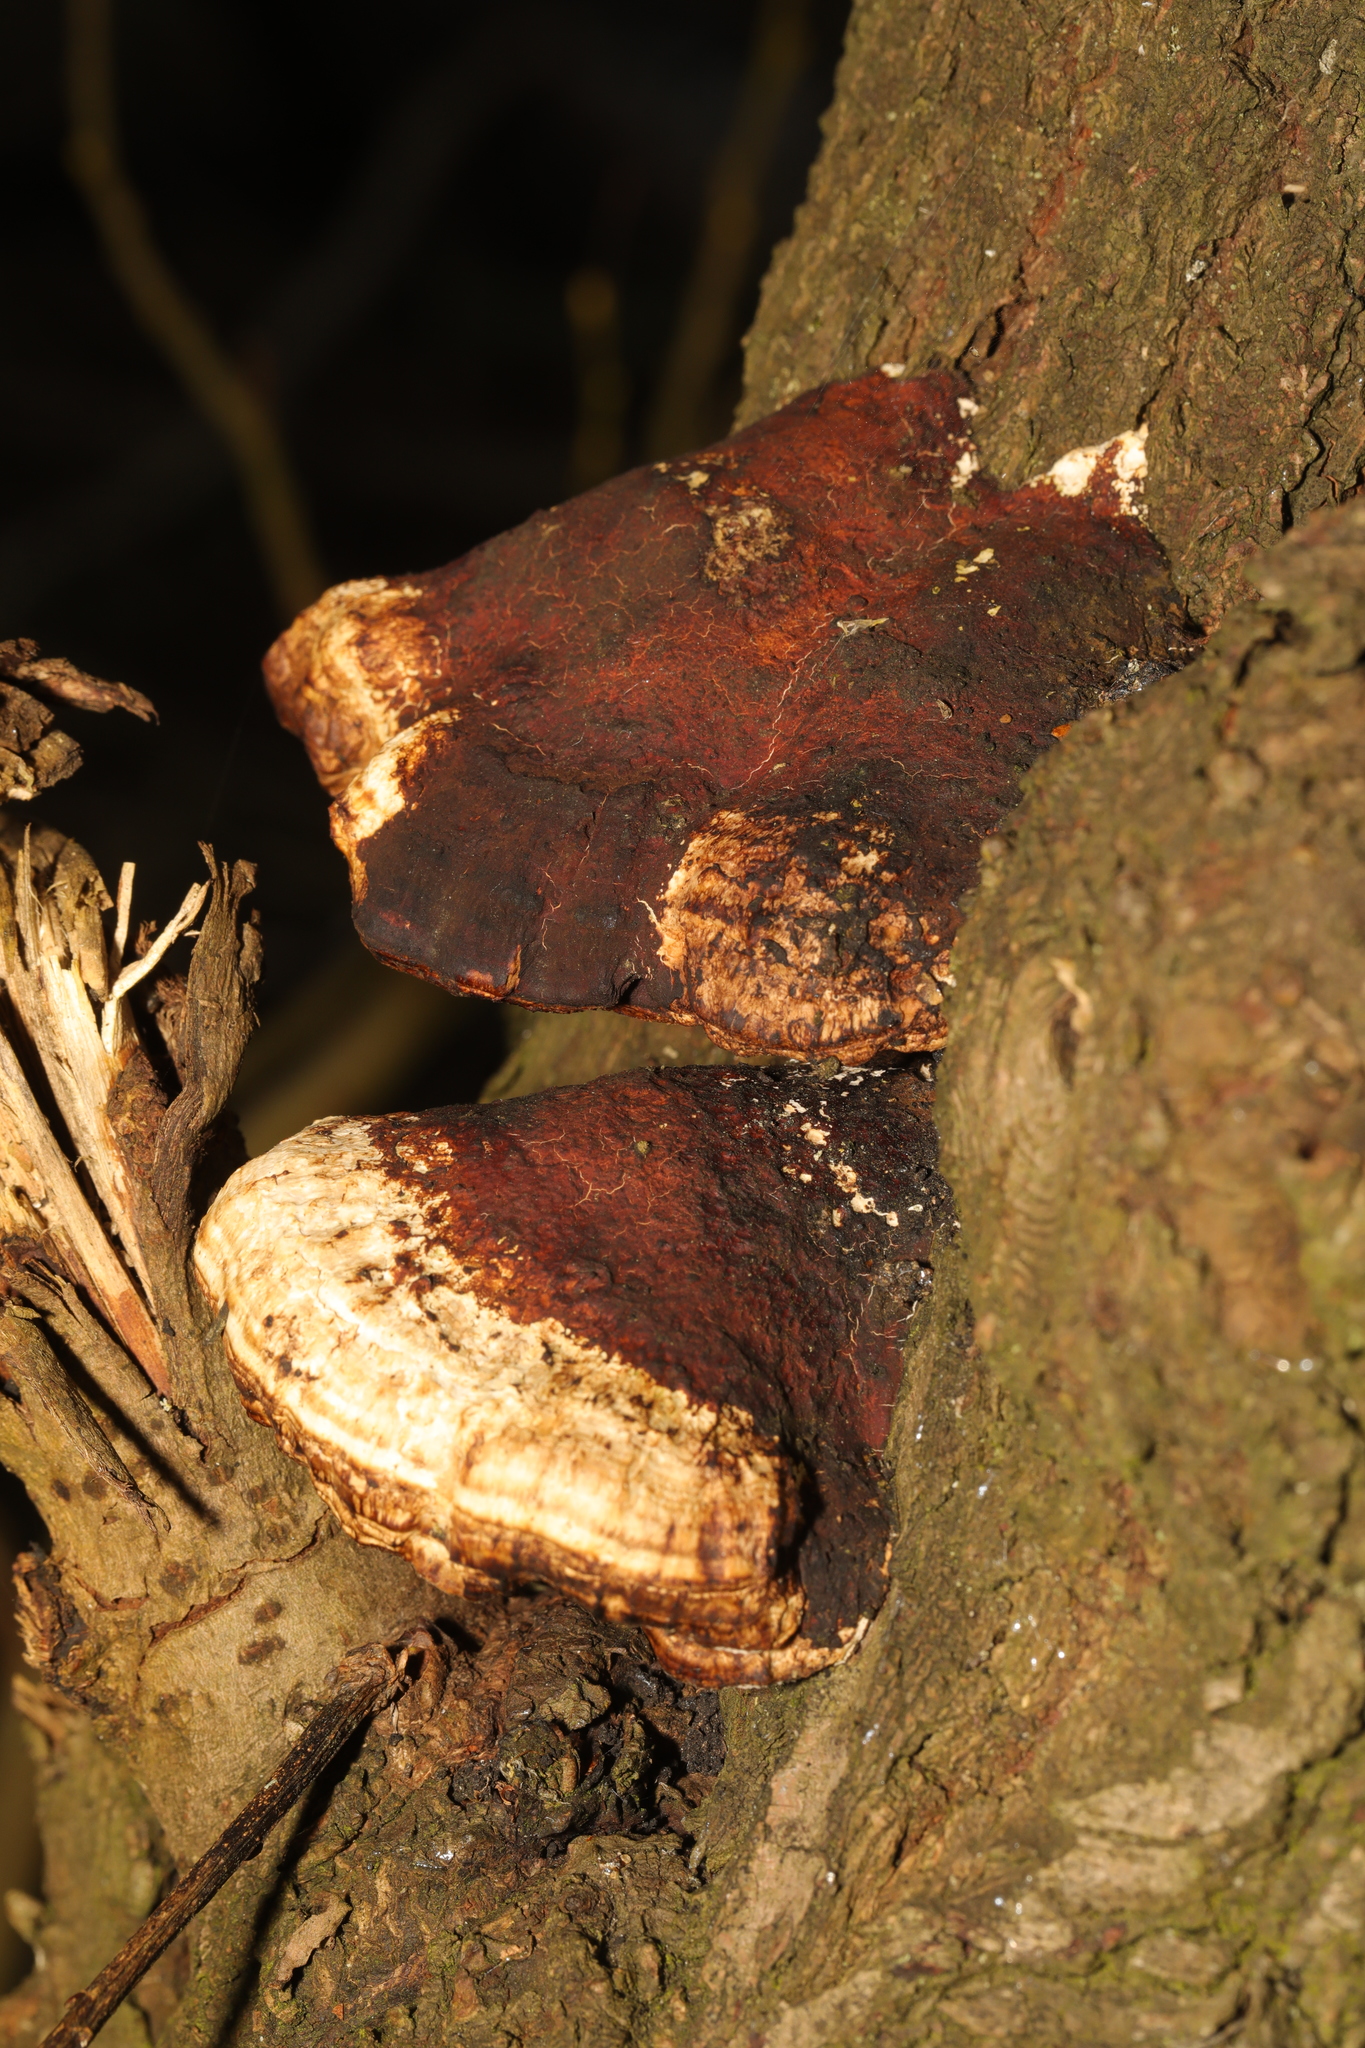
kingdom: Fungi
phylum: Basidiomycota
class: Agaricomycetes
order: Polyporales
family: Polyporaceae
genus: Daedaleopsis
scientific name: Daedaleopsis confragosa
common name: Blushing bracket
